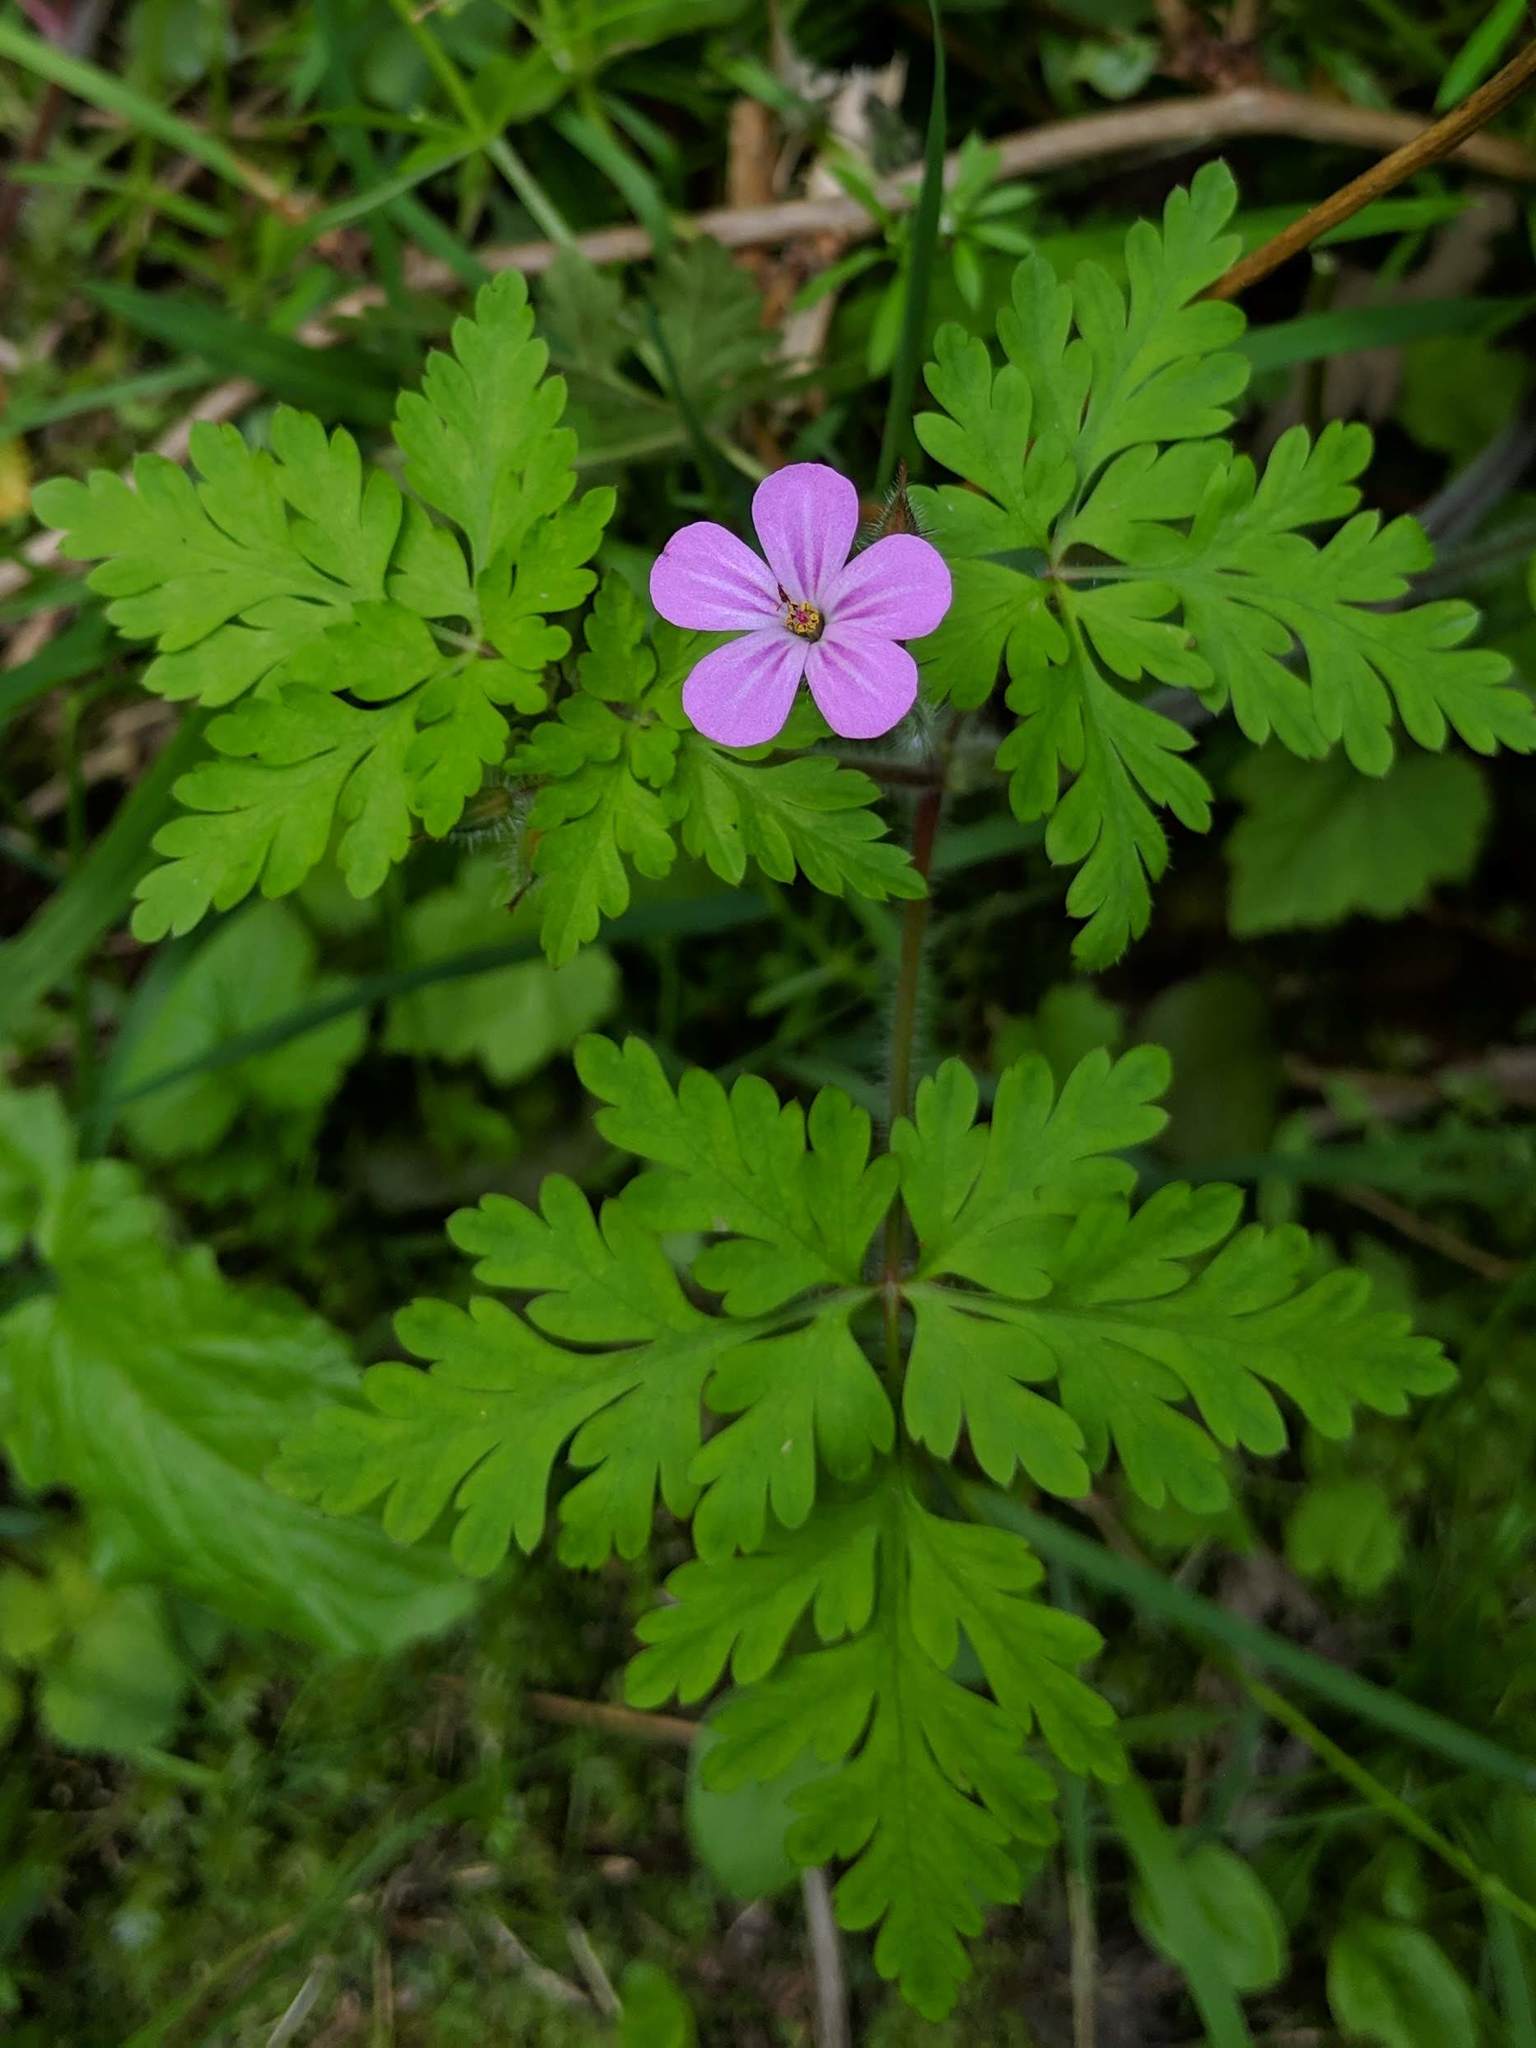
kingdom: Plantae
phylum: Tracheophyta
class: Magnoliopsida
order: Geraniales
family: Geraniaceae
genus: Geranium
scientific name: Geranium robertianum
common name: Herb-robert
